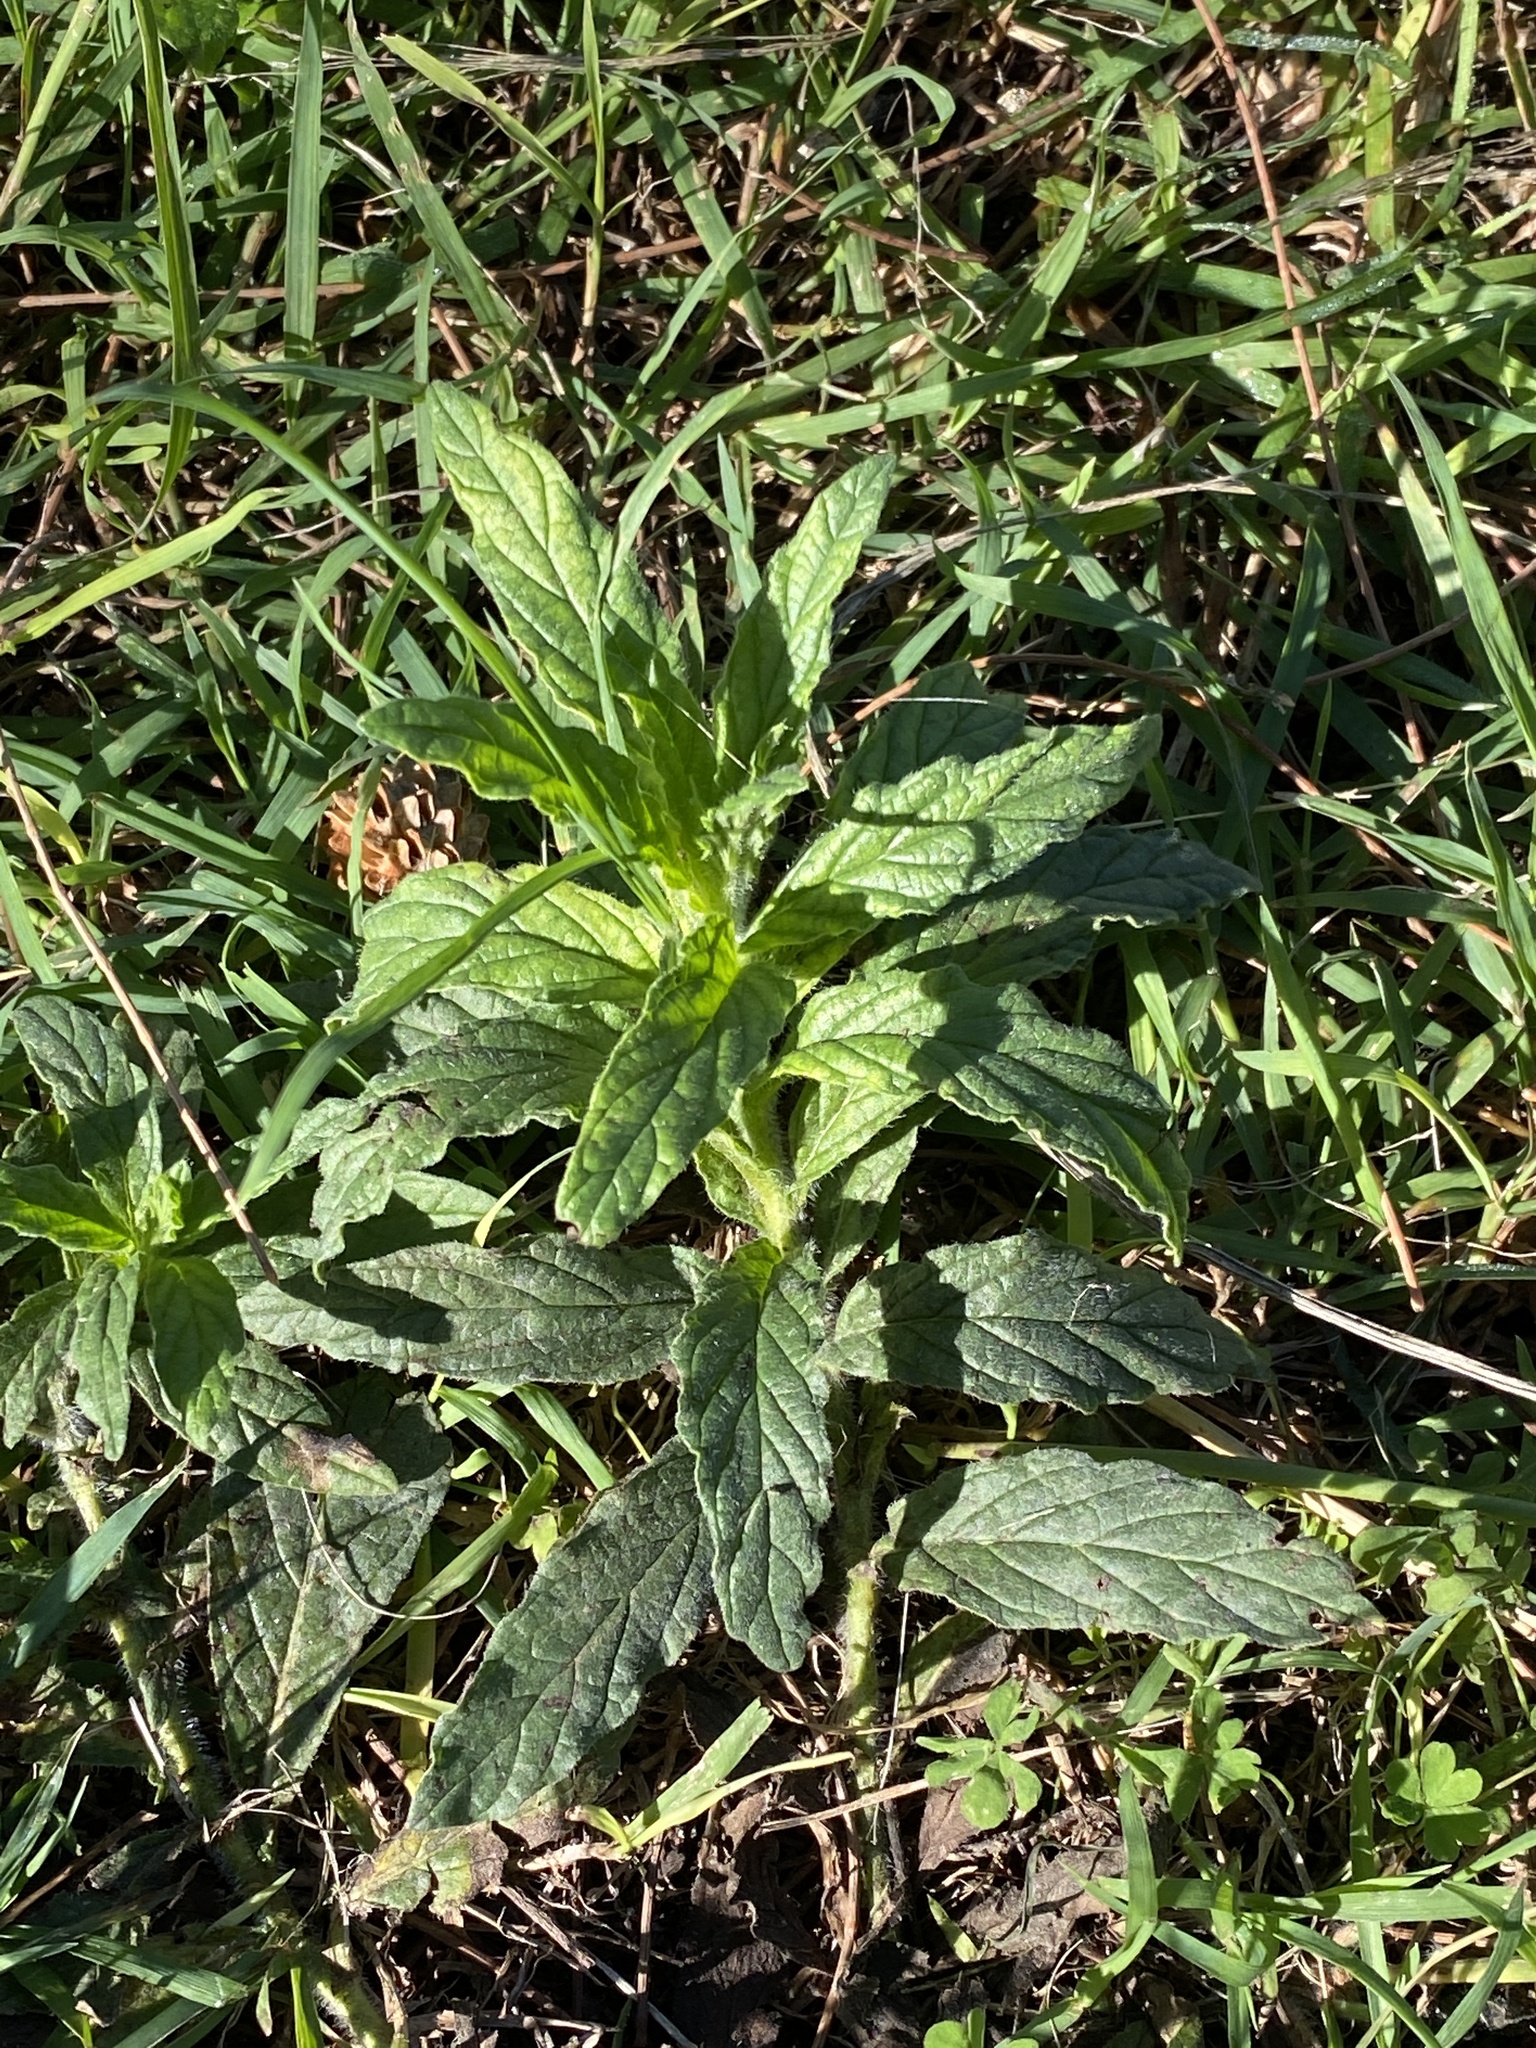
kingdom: Plantae
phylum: Tracheophyta
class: Magnoliopsida
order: Boraginales
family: Heliotropiaceae
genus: Heliotropium
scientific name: Heliotropium amplexicaule
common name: Clasping heliotrope
